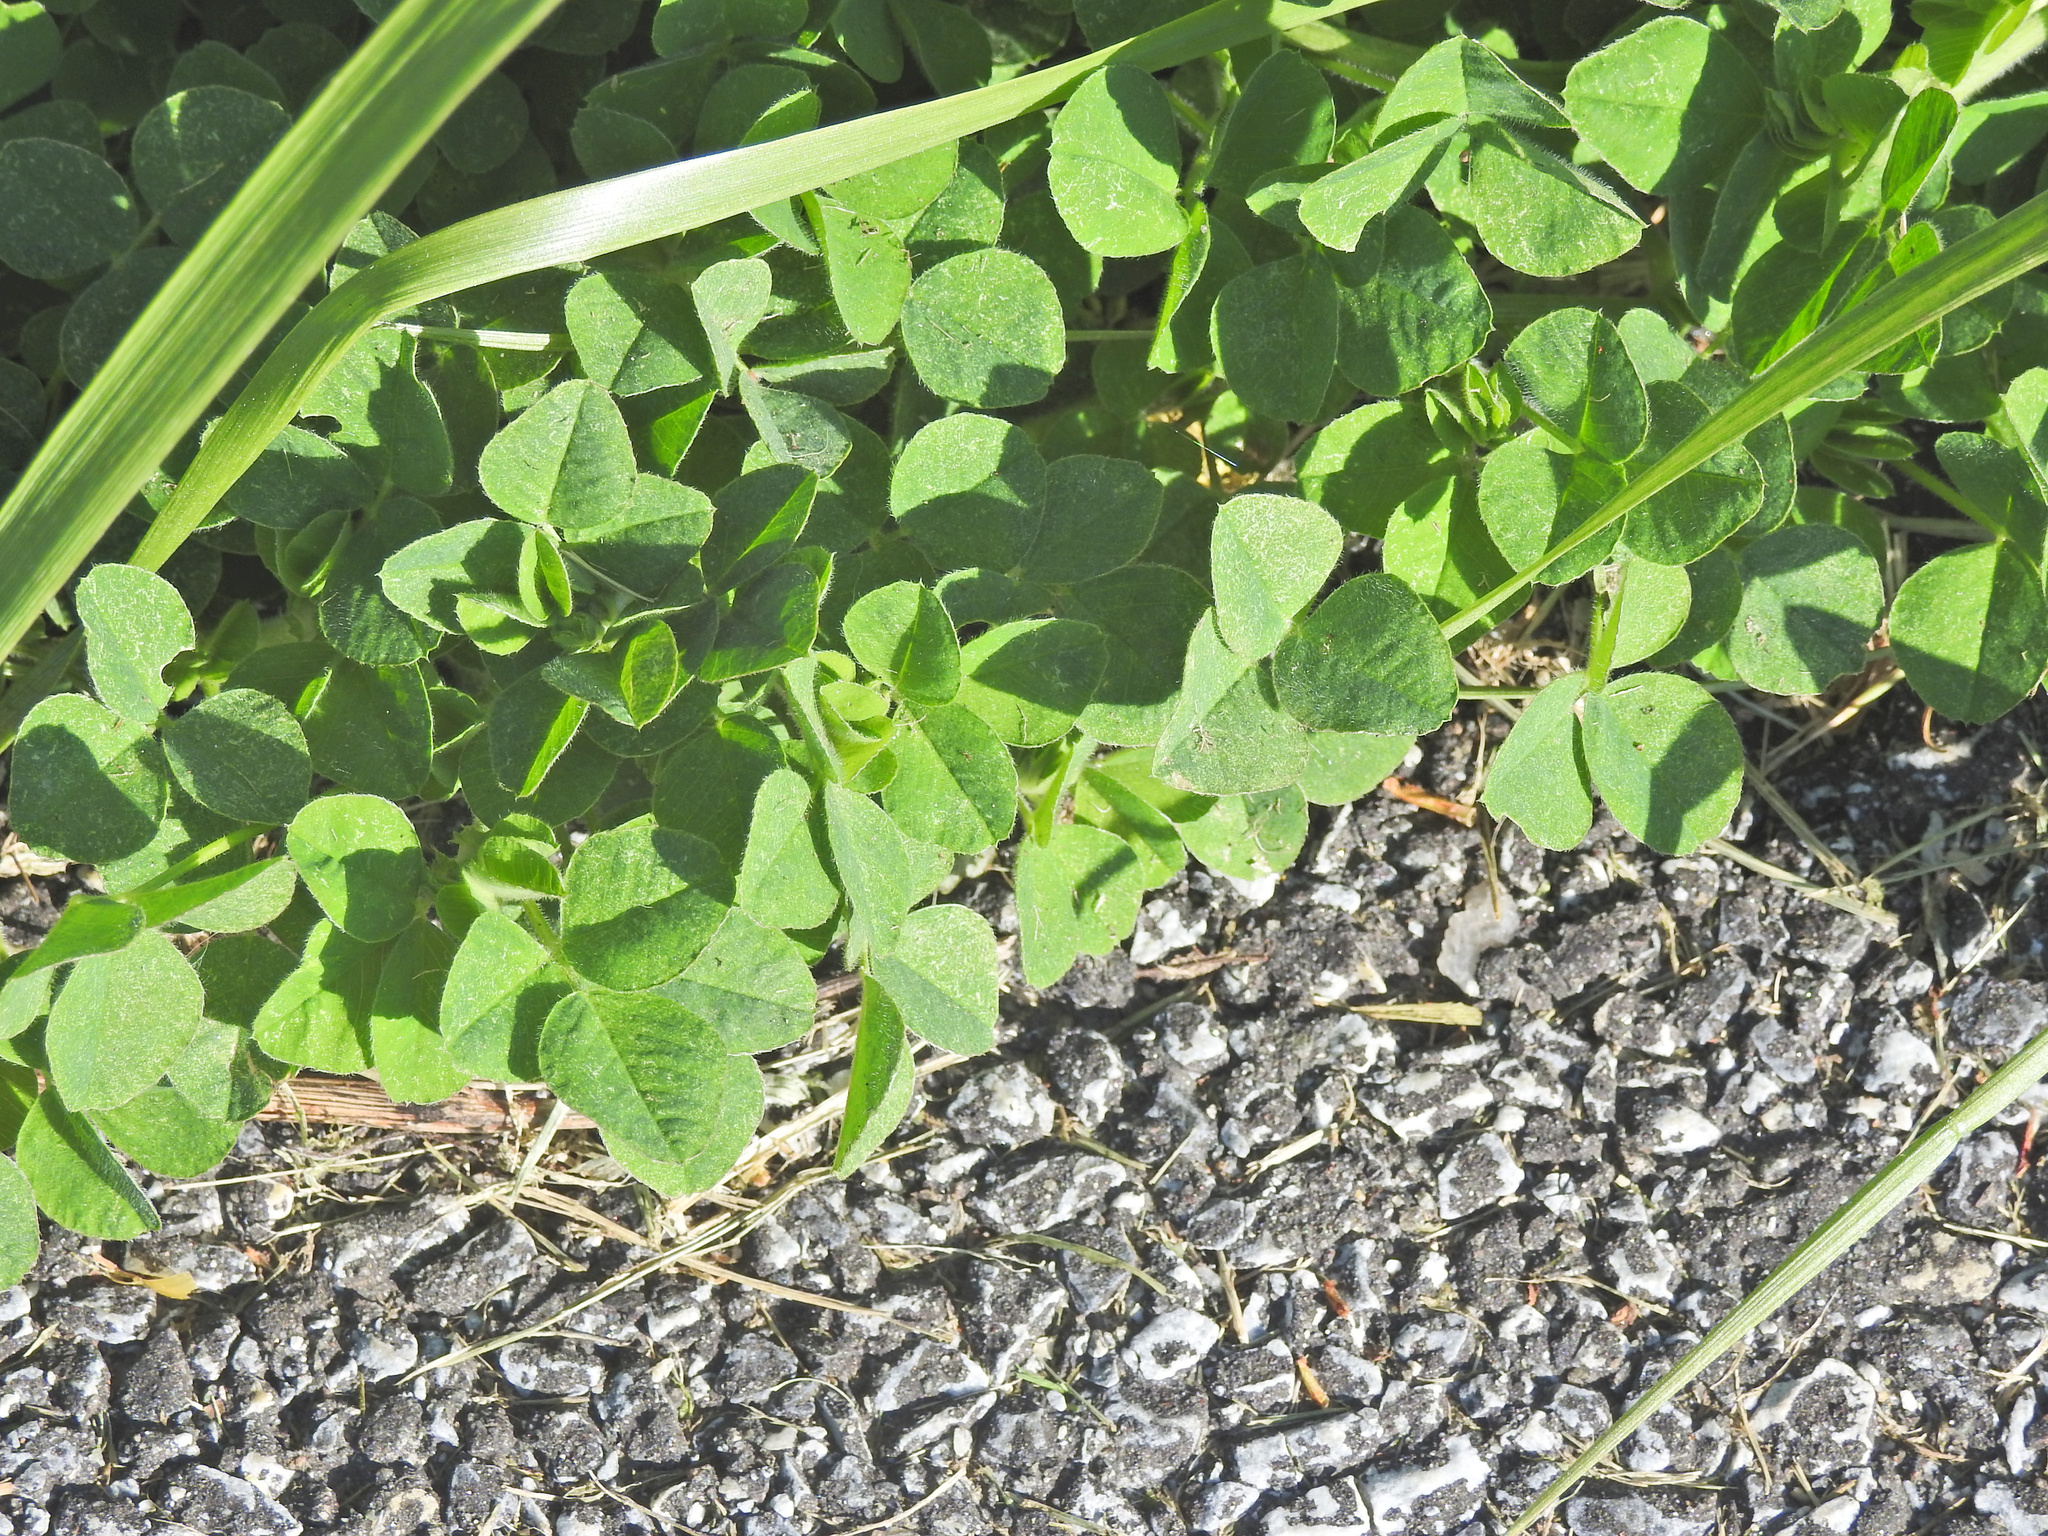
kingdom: Plantae
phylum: Tracheophyta
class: Magnoliopsida
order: Fabales
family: Fabaceae
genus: Medicago
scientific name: Medicago lupulina
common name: Black medick
